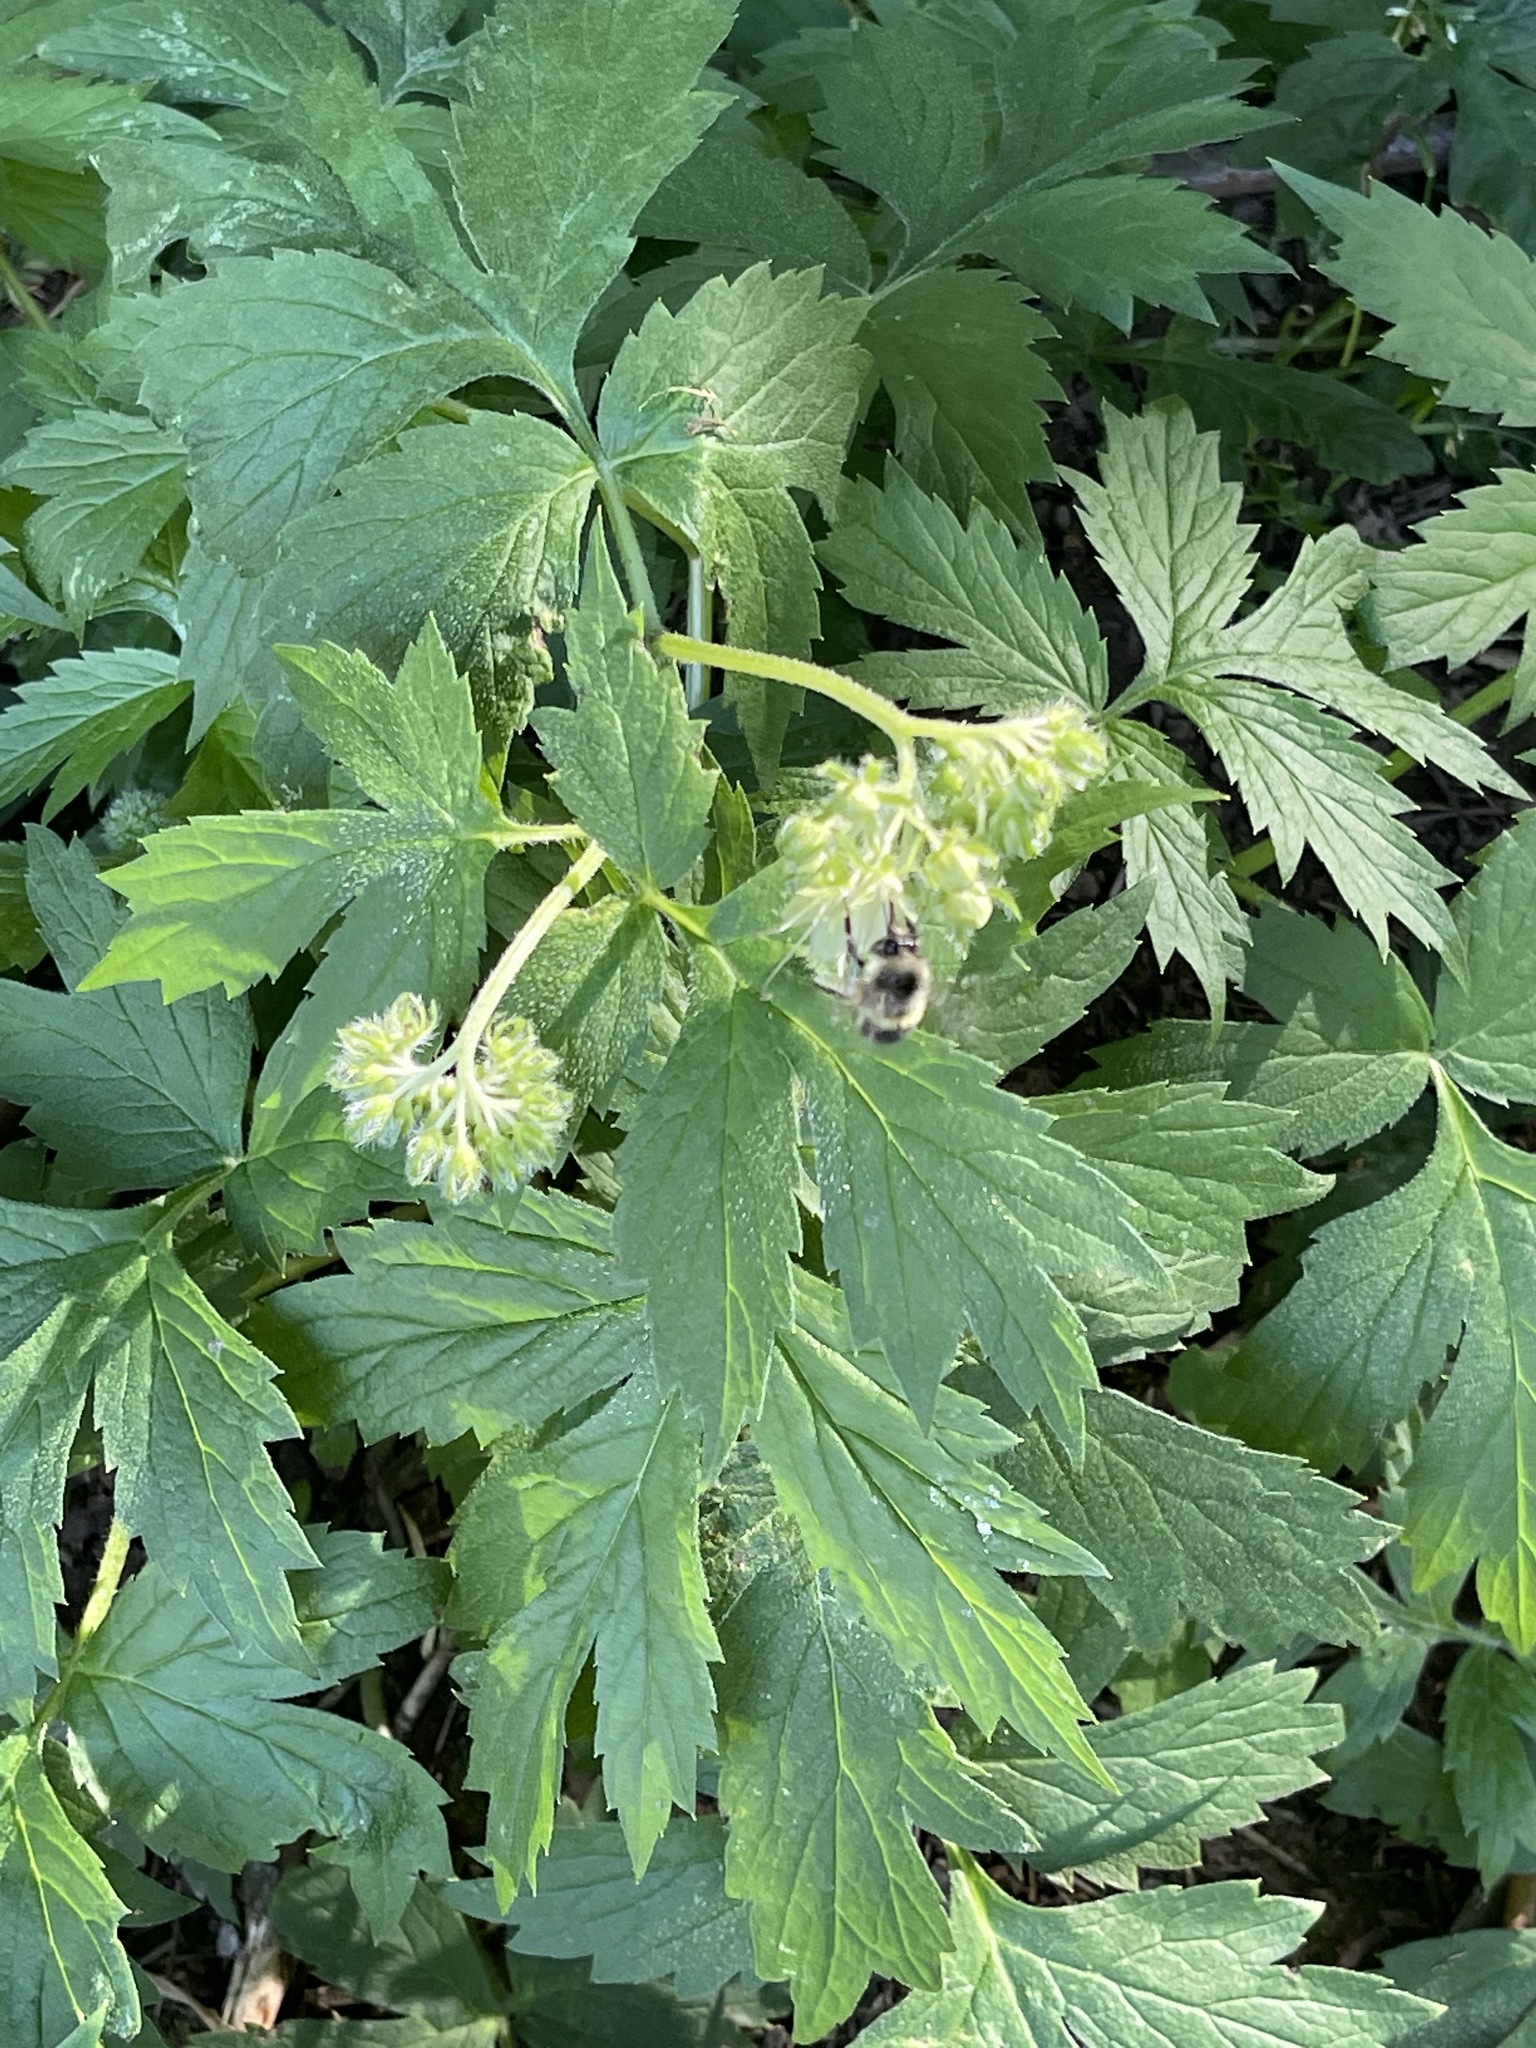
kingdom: Plantae
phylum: Tracheophyta
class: Magnoliopsida
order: Boraginales
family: Hydrophyllaceae
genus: Hydrophyllum
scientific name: Hydrophyllum tenuipes
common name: Pacific waterleaf
